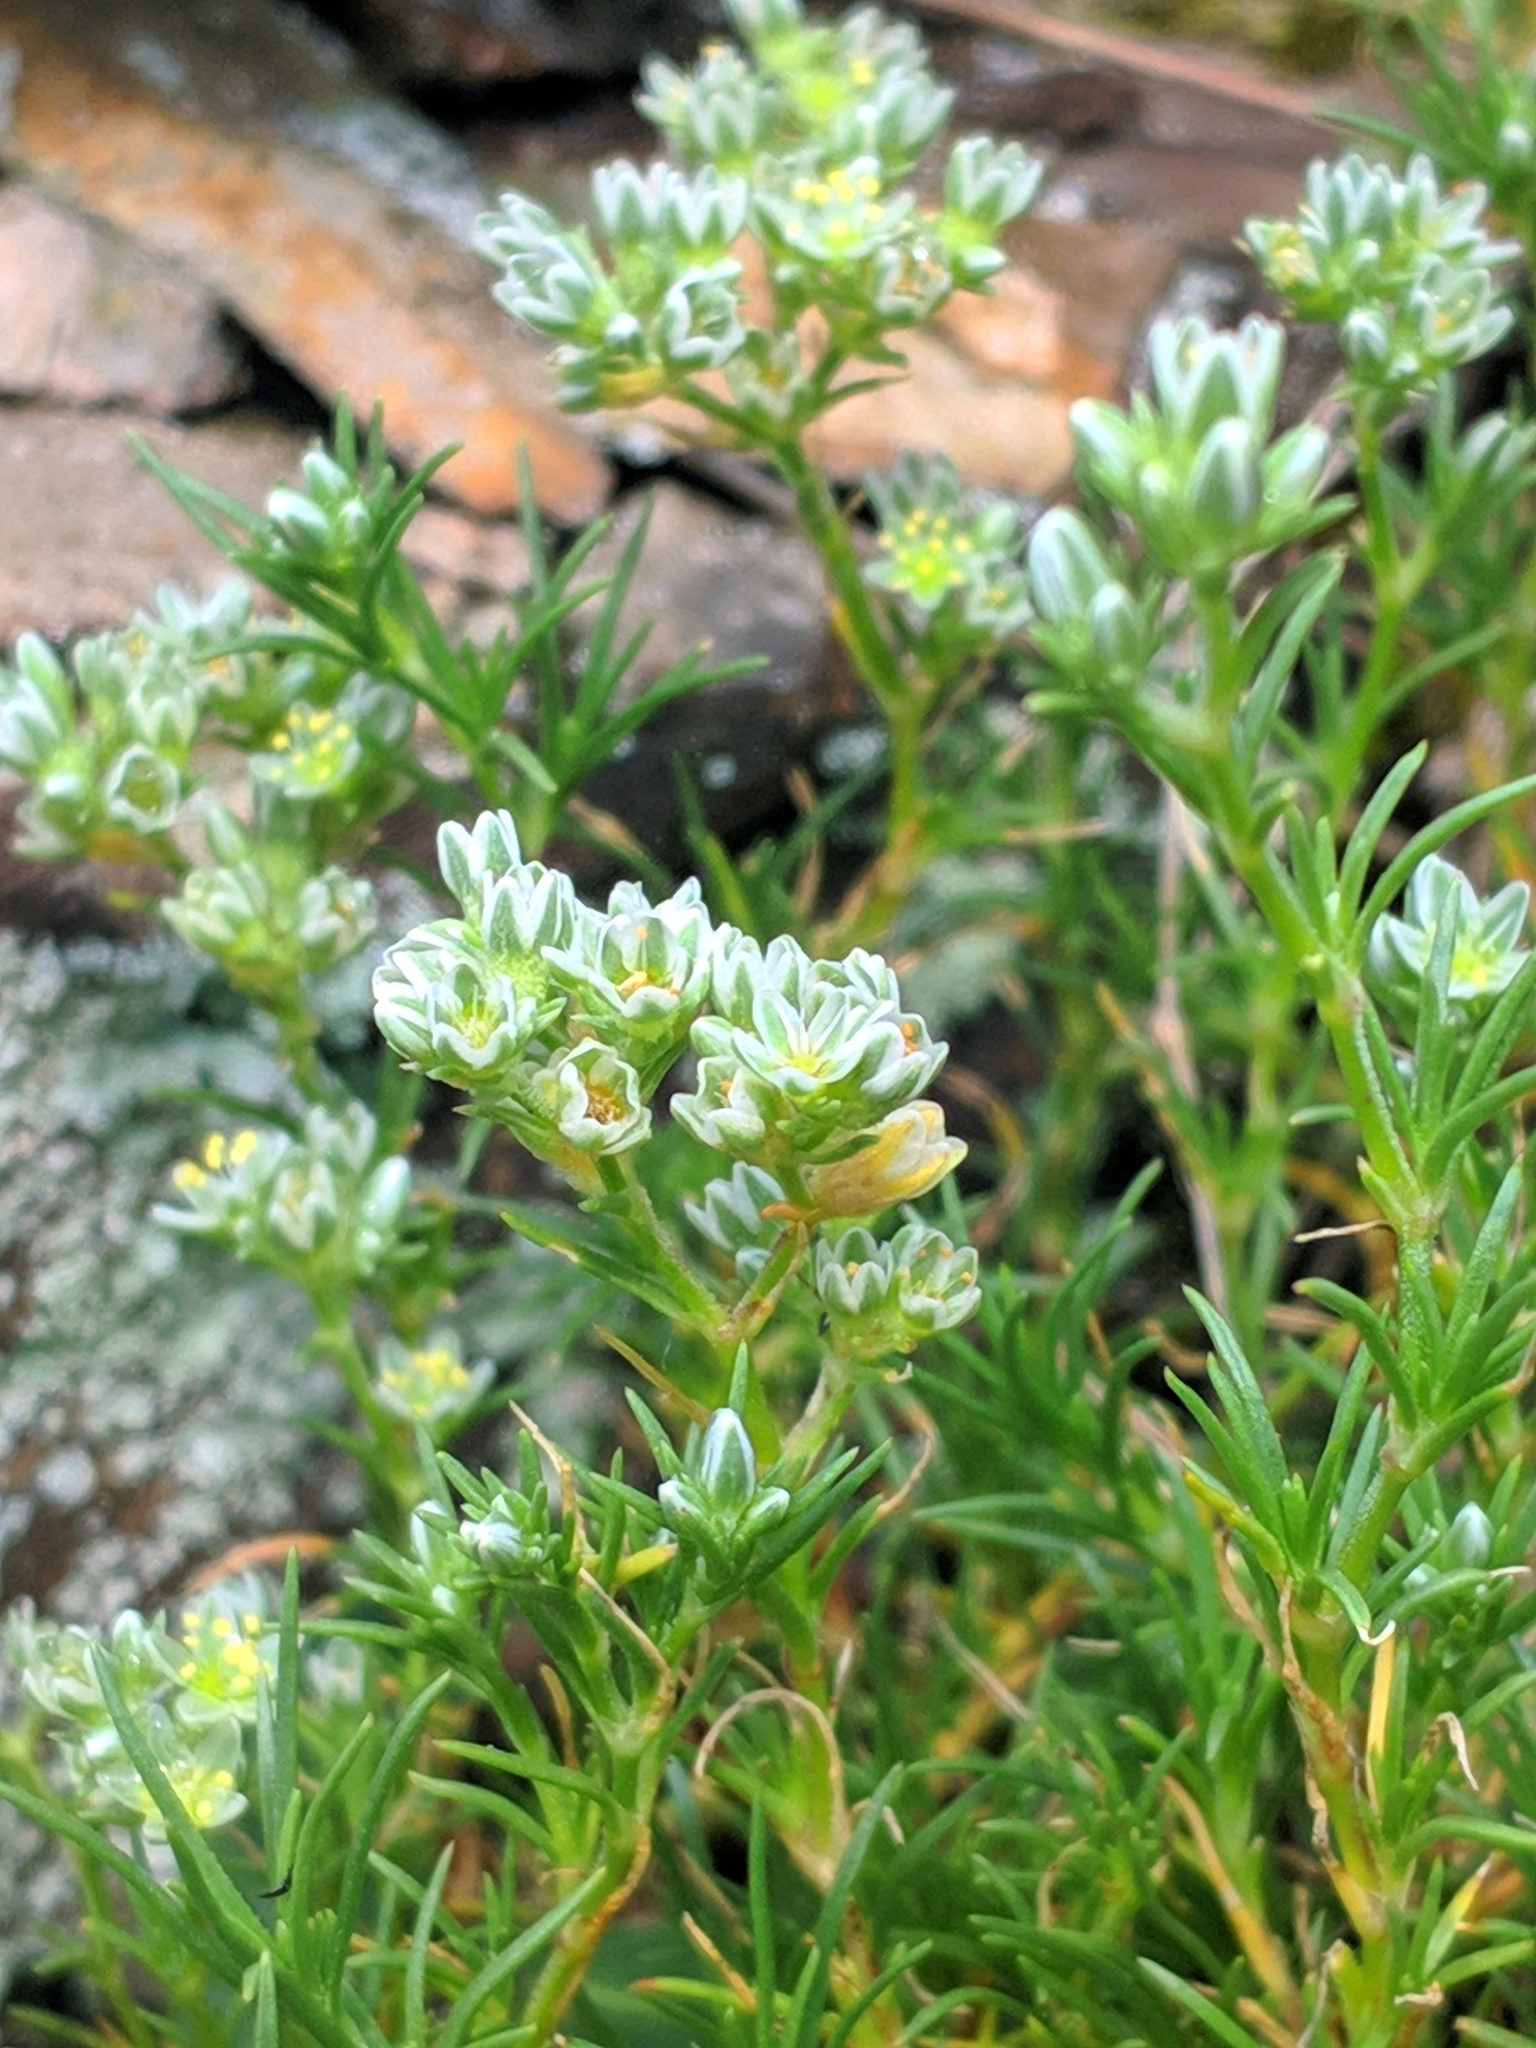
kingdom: Plantae
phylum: Tracheophyta
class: Magnoliopsida
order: Caryophyllales
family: Caryophyllaceae
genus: Scleranthus
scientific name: Scleranthus perennis
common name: Perennial knawel
